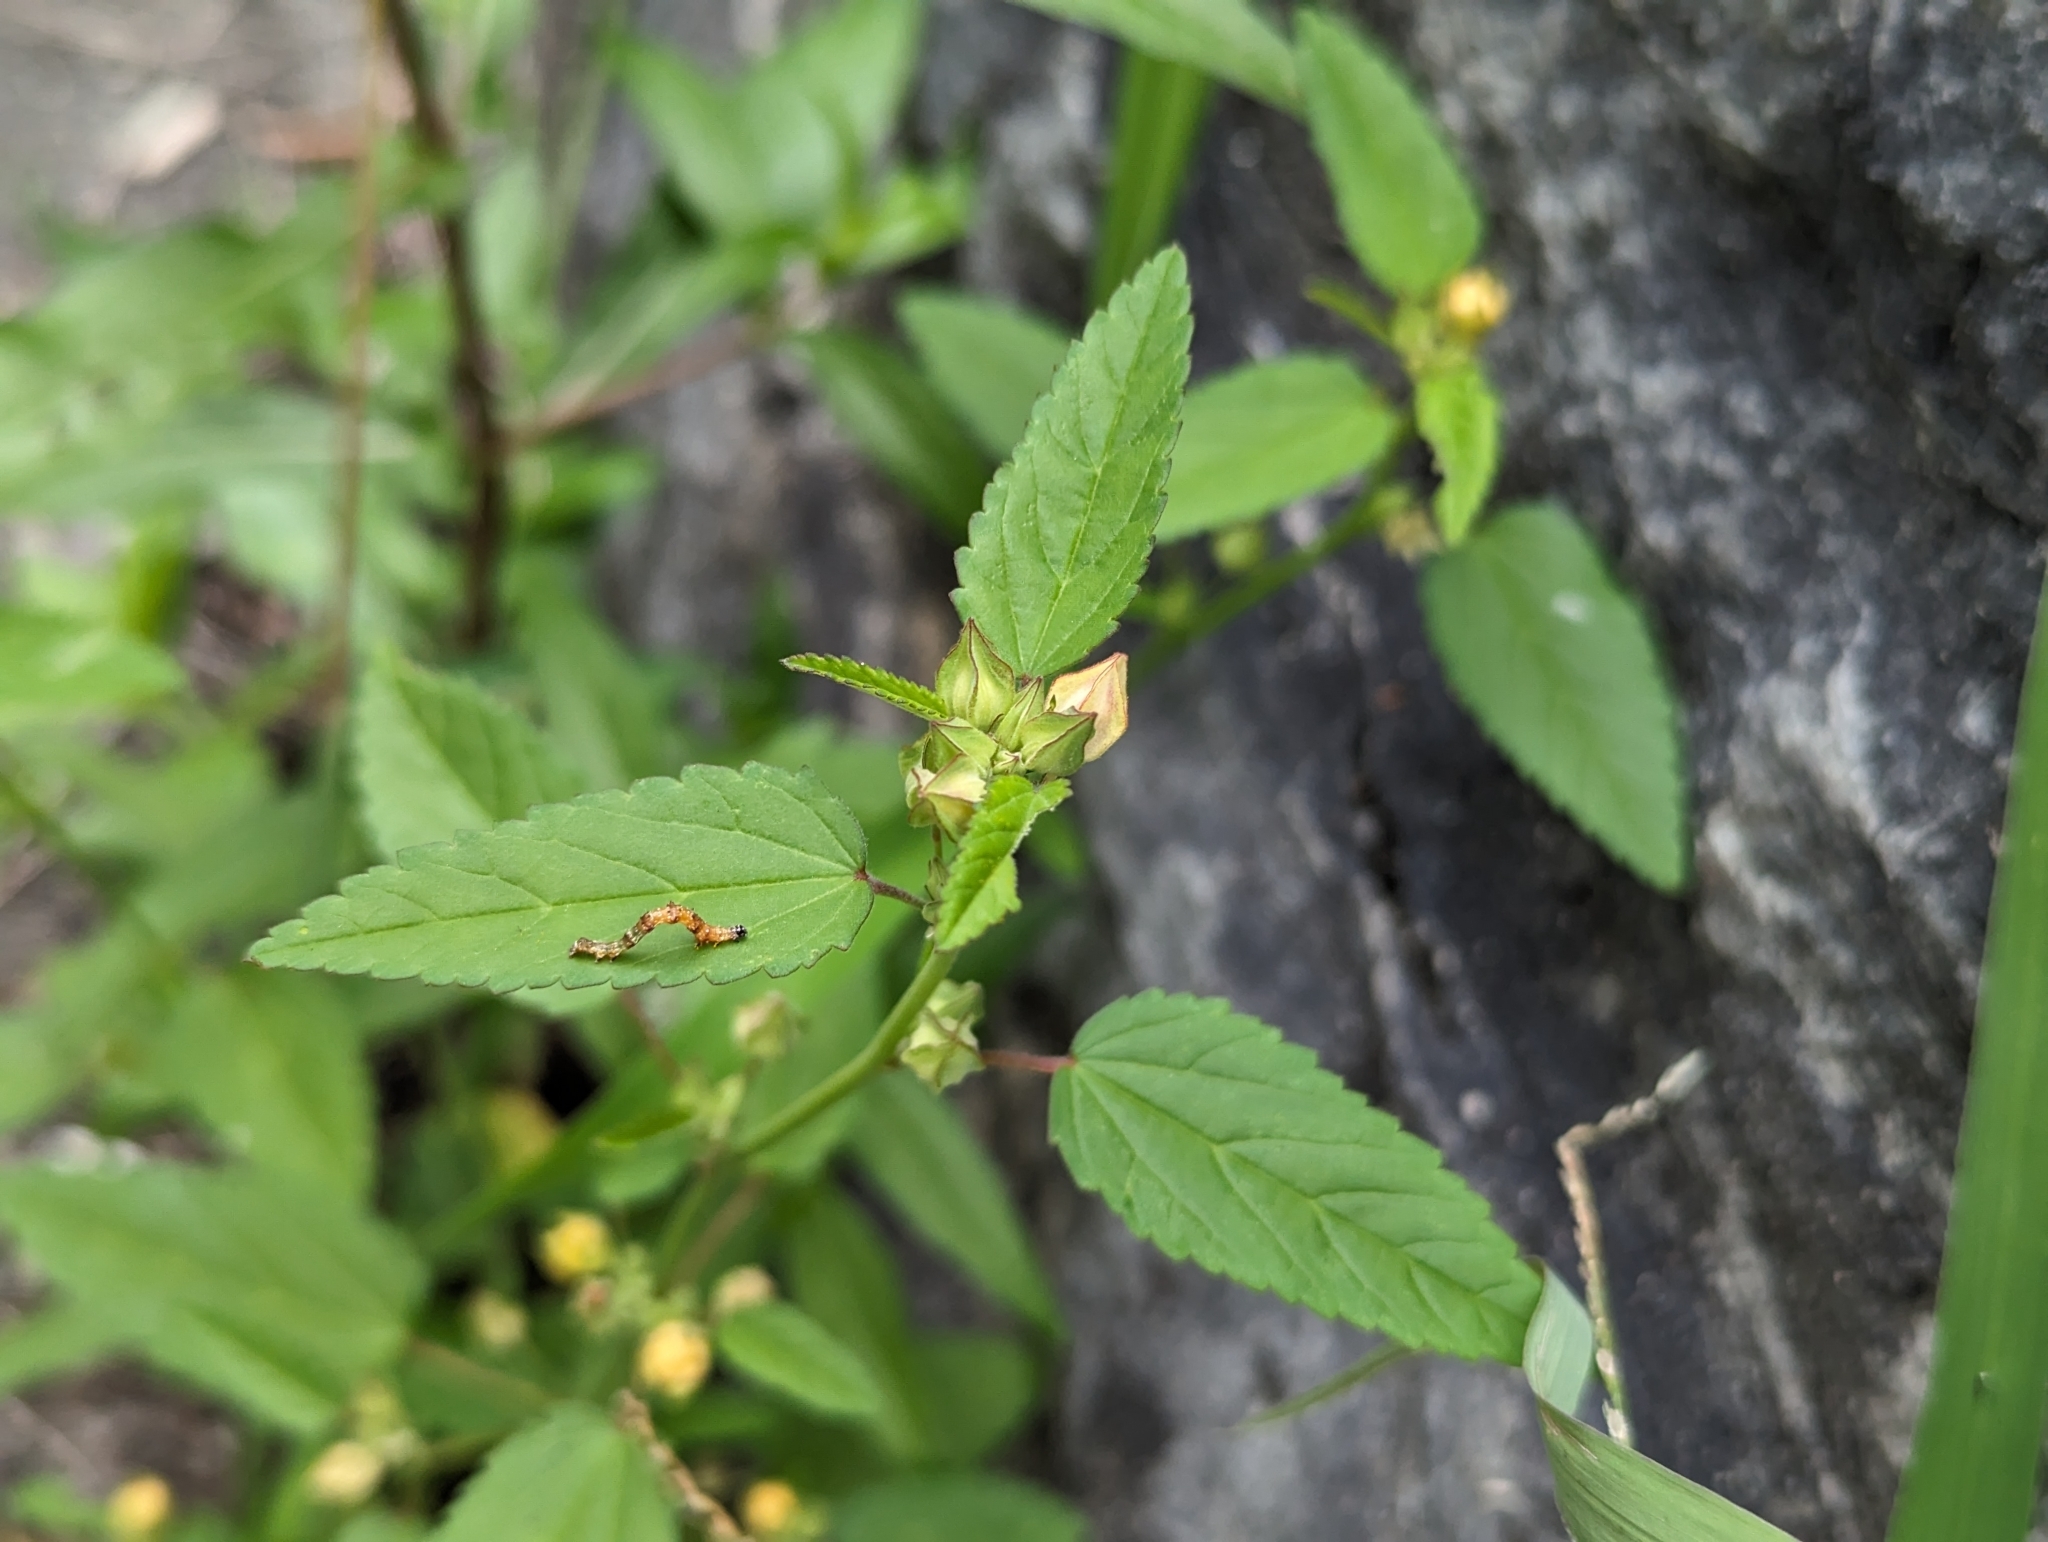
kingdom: Plantae
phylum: Tracheophyta
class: Magnoliopsida
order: Malvales
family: Malvaceae
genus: Sida
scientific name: Sida spinosa
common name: Prickly fanpetals
